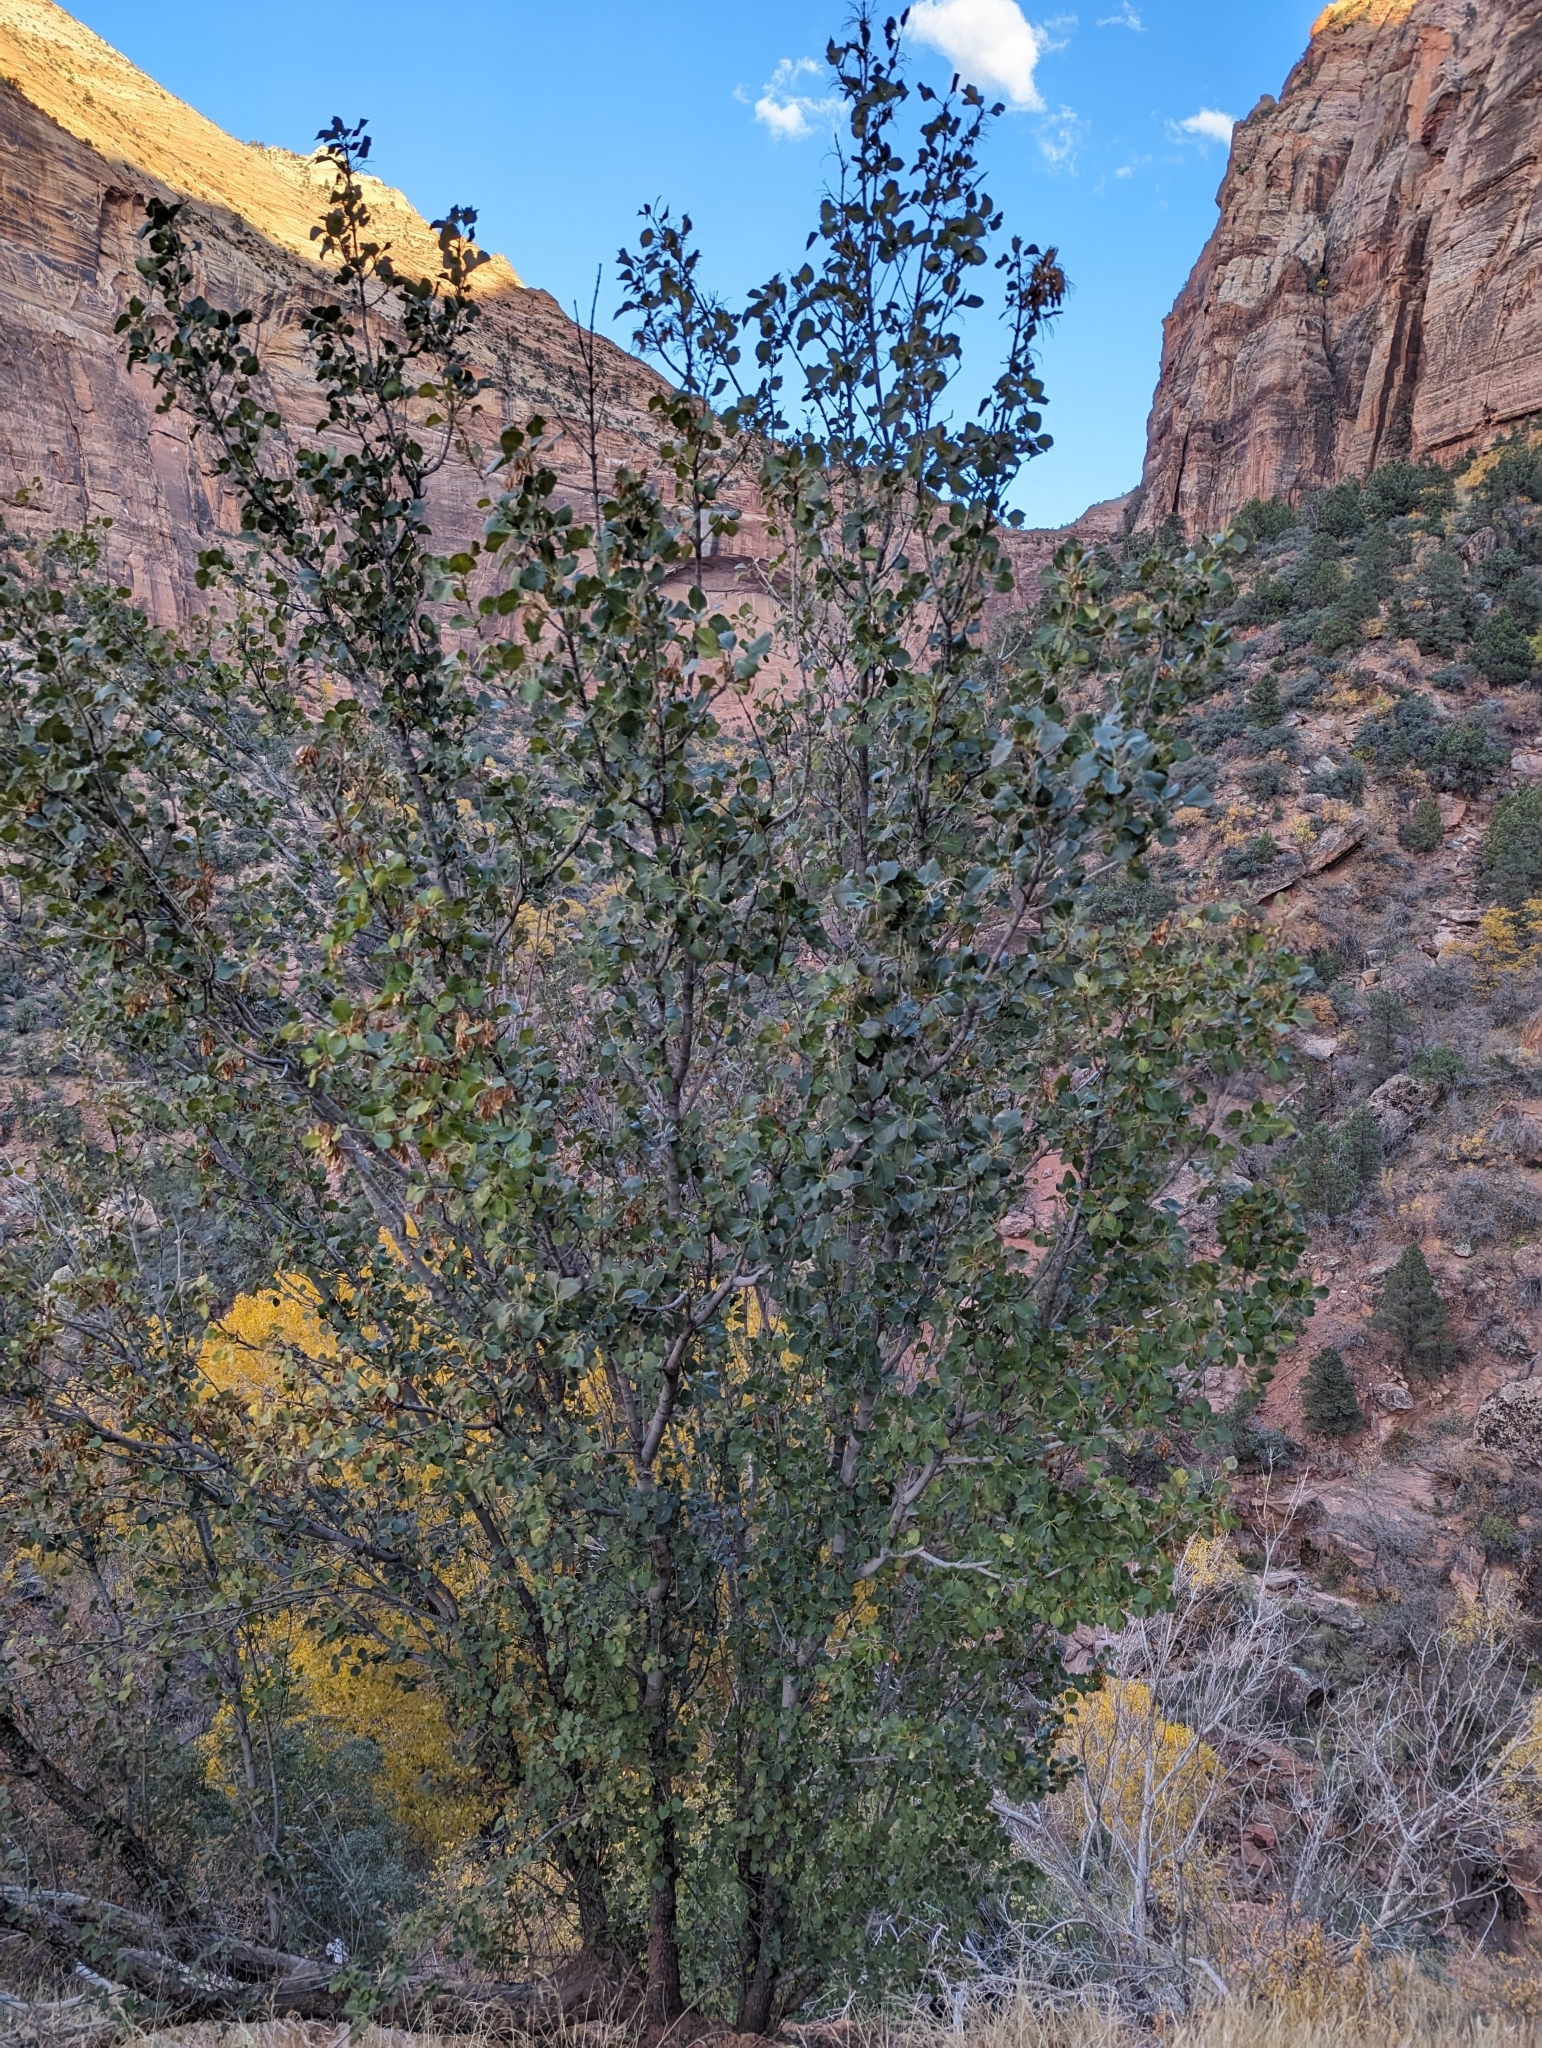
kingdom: Plantae
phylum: Tracheophyta
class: Magnoliopsida
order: Lamiales
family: Oleaceae
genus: Fraxinus
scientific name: Fraxinus anomala
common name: Utah ash
